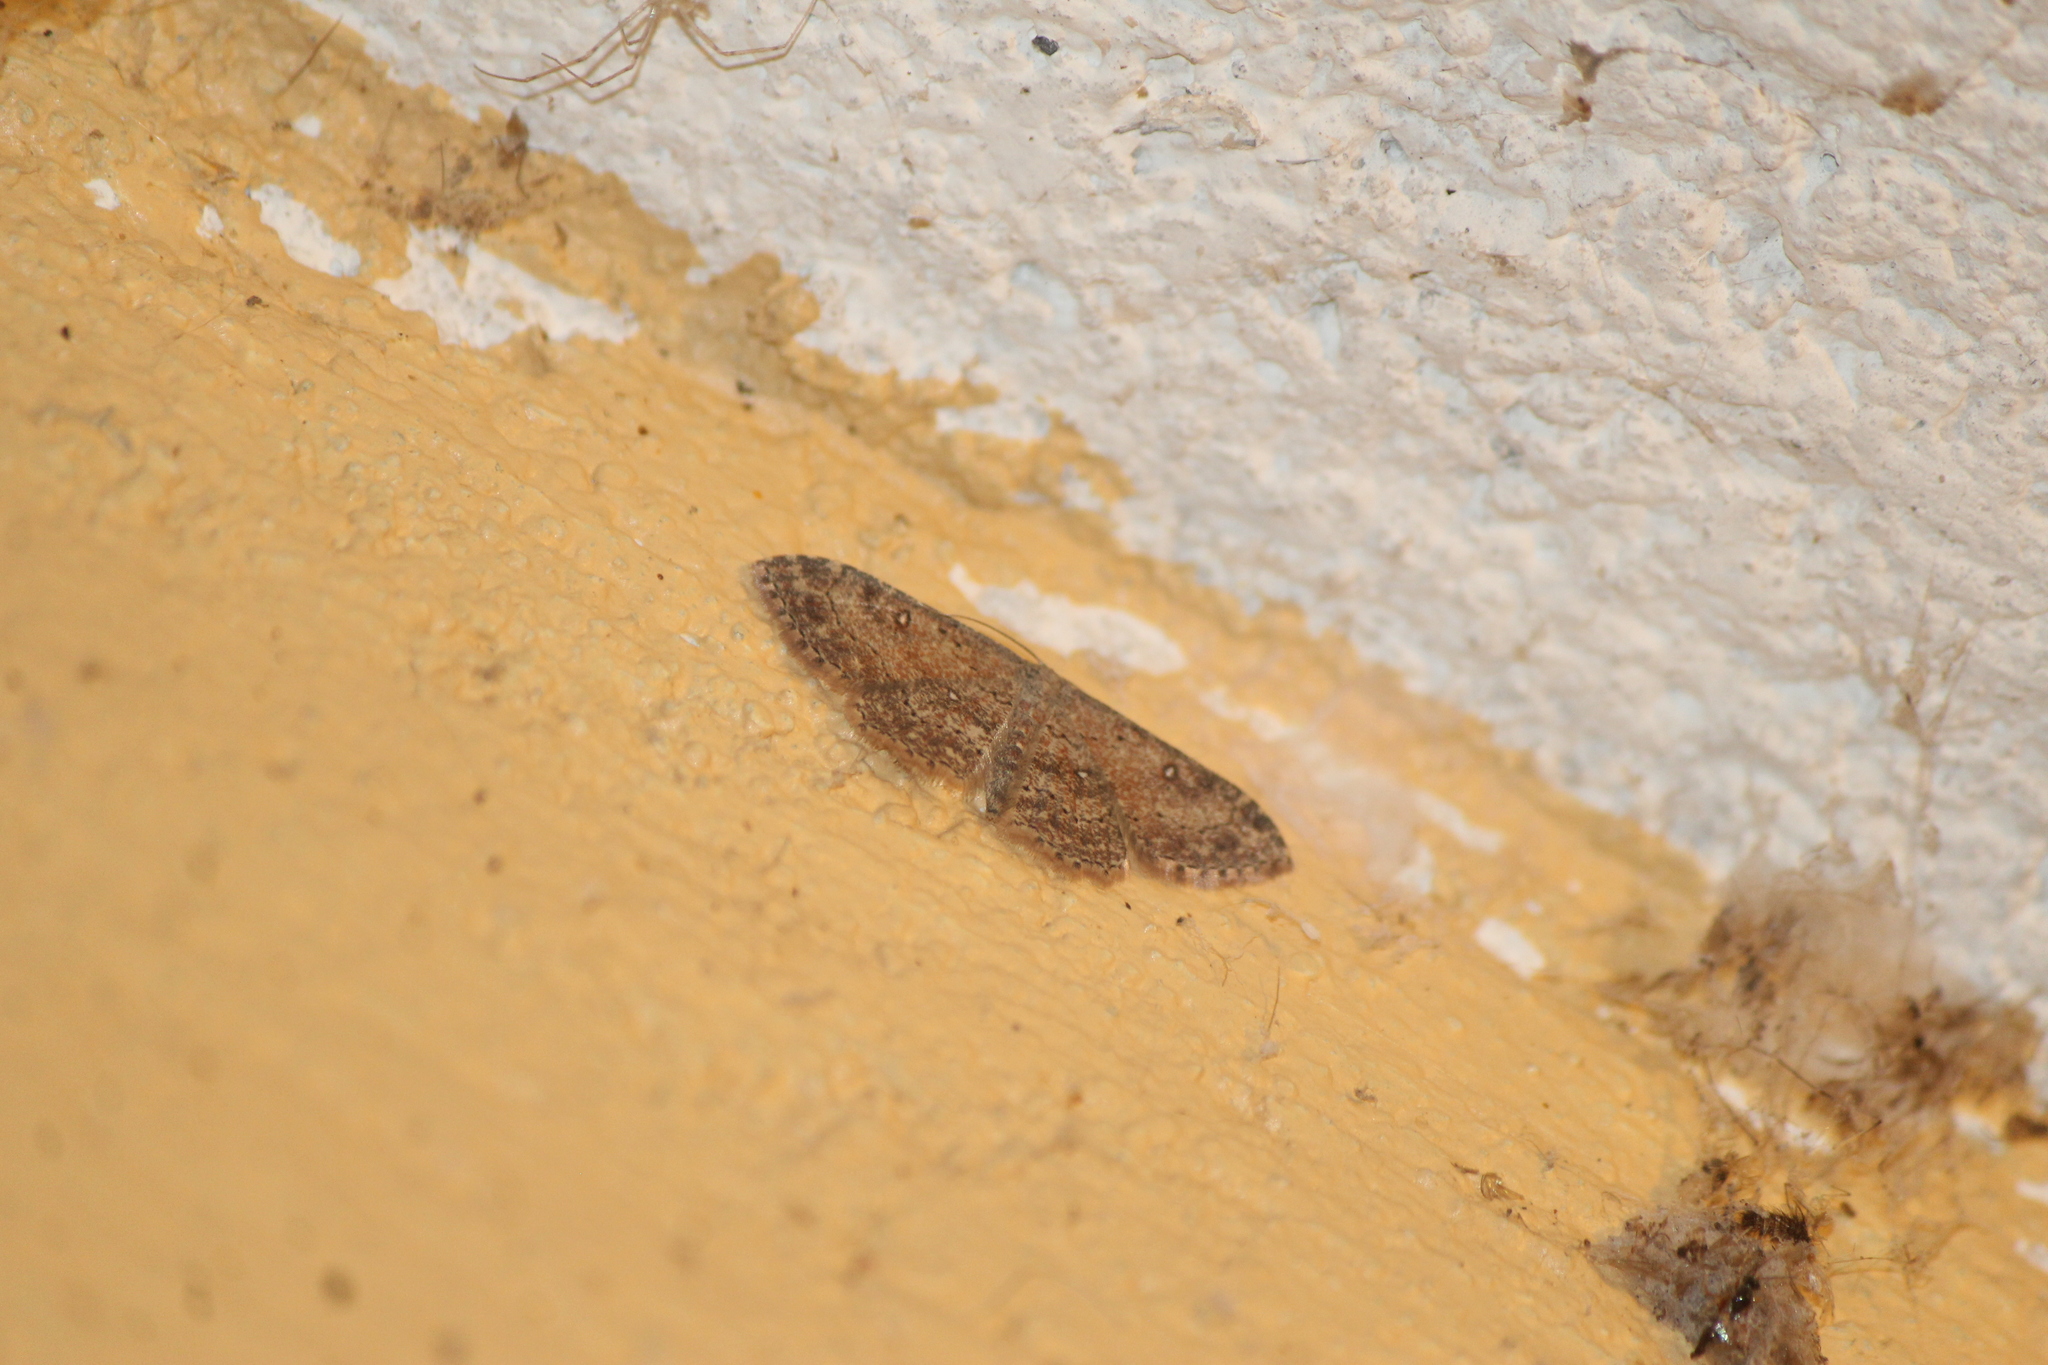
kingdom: Animalia
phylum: Arthropoda
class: Insecta
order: Lepidoptera
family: Geometridae
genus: Cyclophora
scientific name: Cyclophora nanaria
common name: Cankerworm
